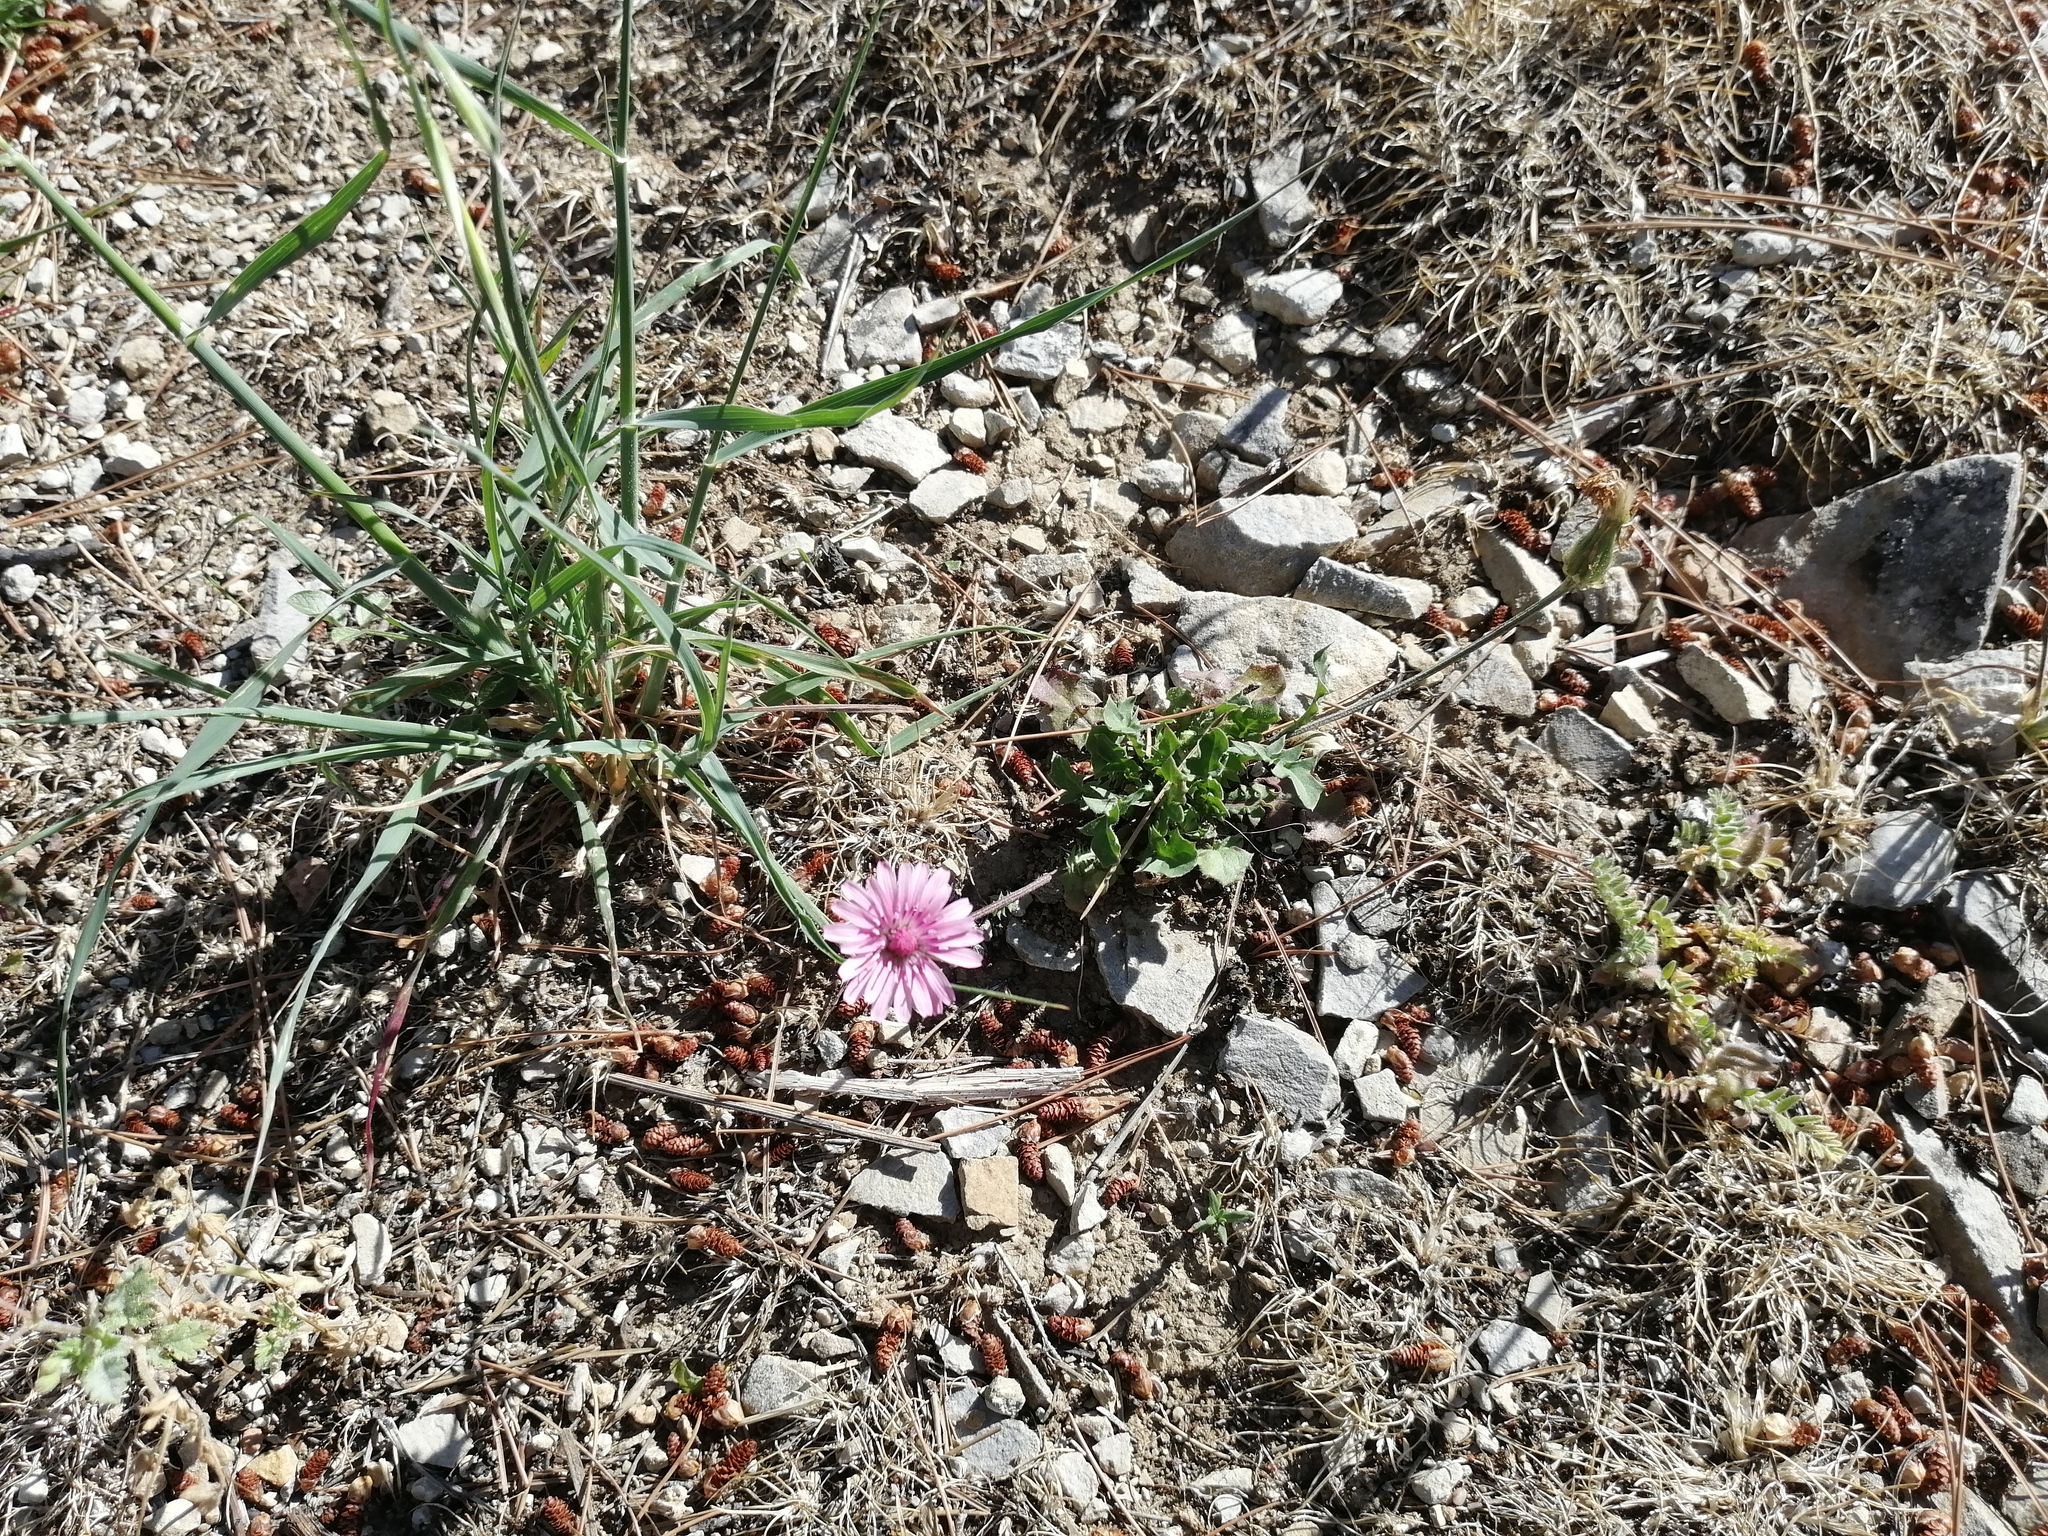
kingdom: Plantae
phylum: Tracheophyta
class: Magnoliopsida
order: Asterales
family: Asteraceae
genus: Crepis
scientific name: Crepis rubra
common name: Pink hawk's-beard
